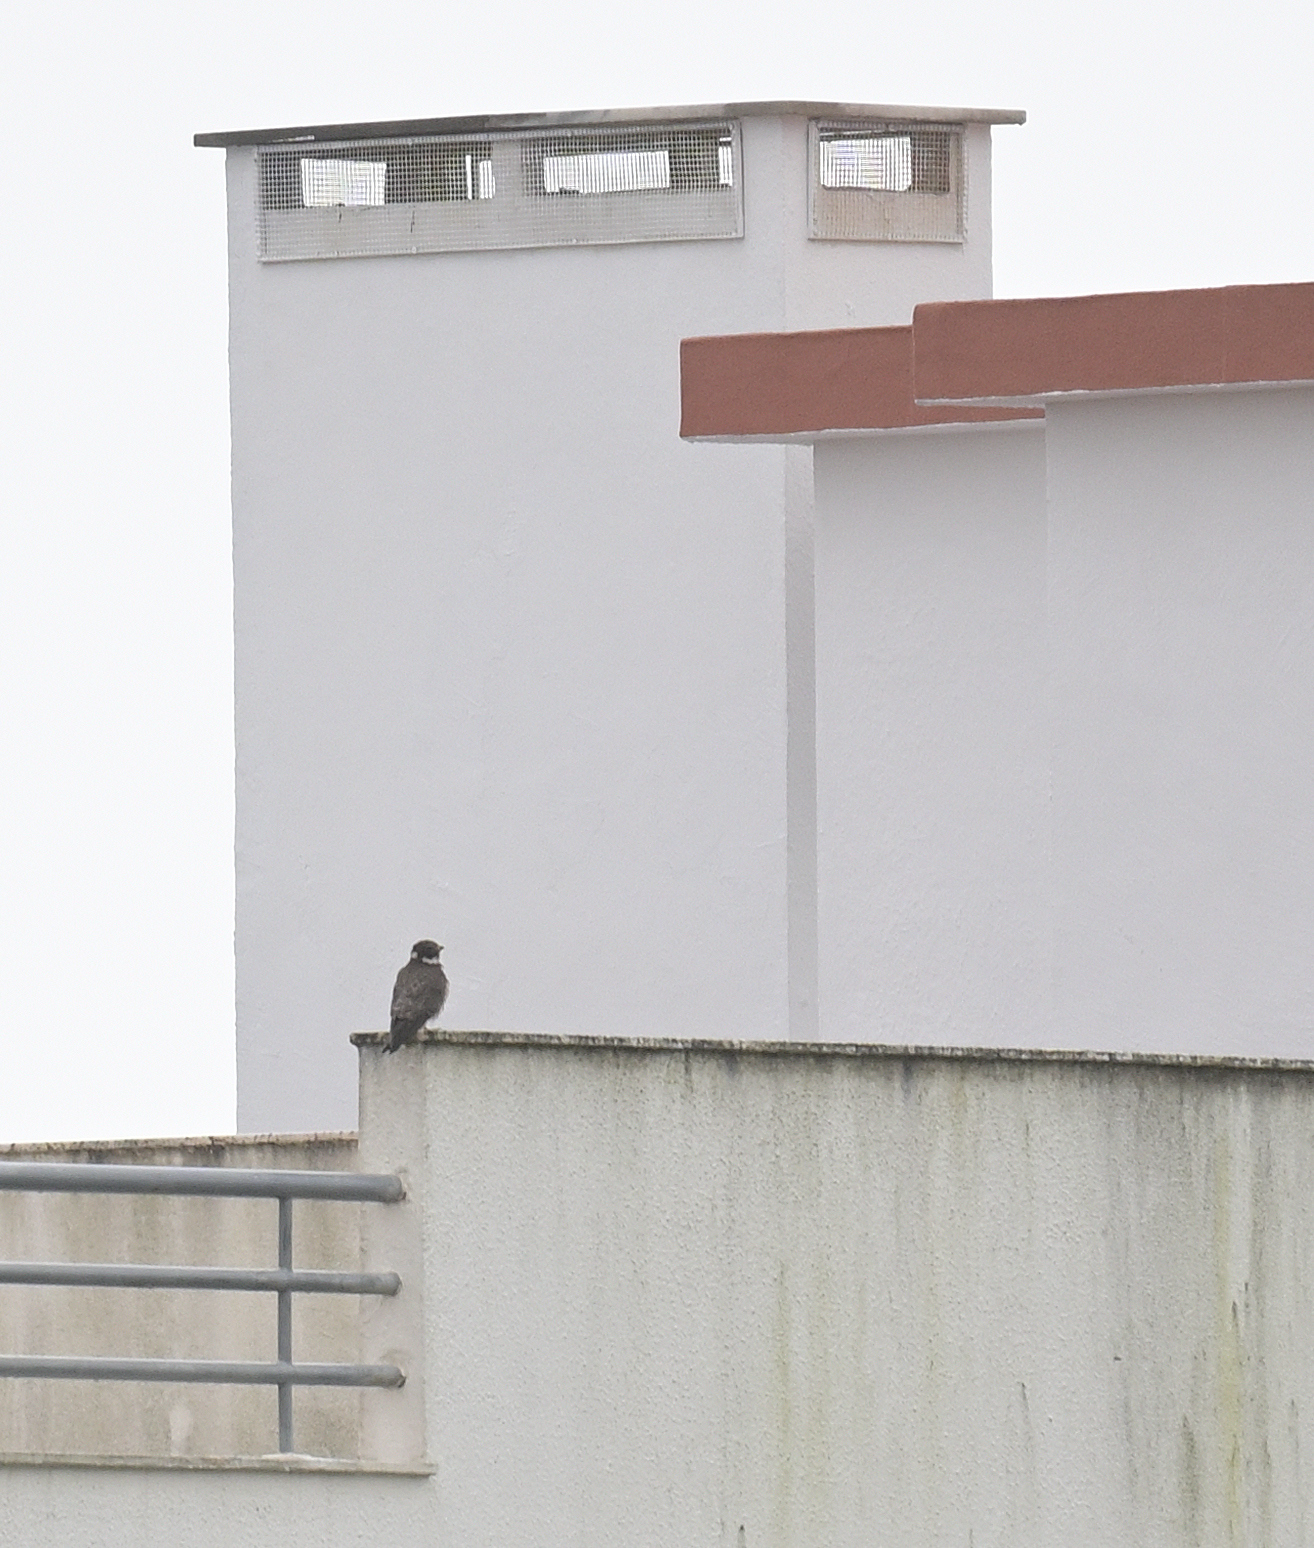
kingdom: Animalia
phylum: Chordata
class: Aves
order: Falconiformes
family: Falconidae
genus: Falco
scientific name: Falco peregrinus
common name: Peregrine falcon
